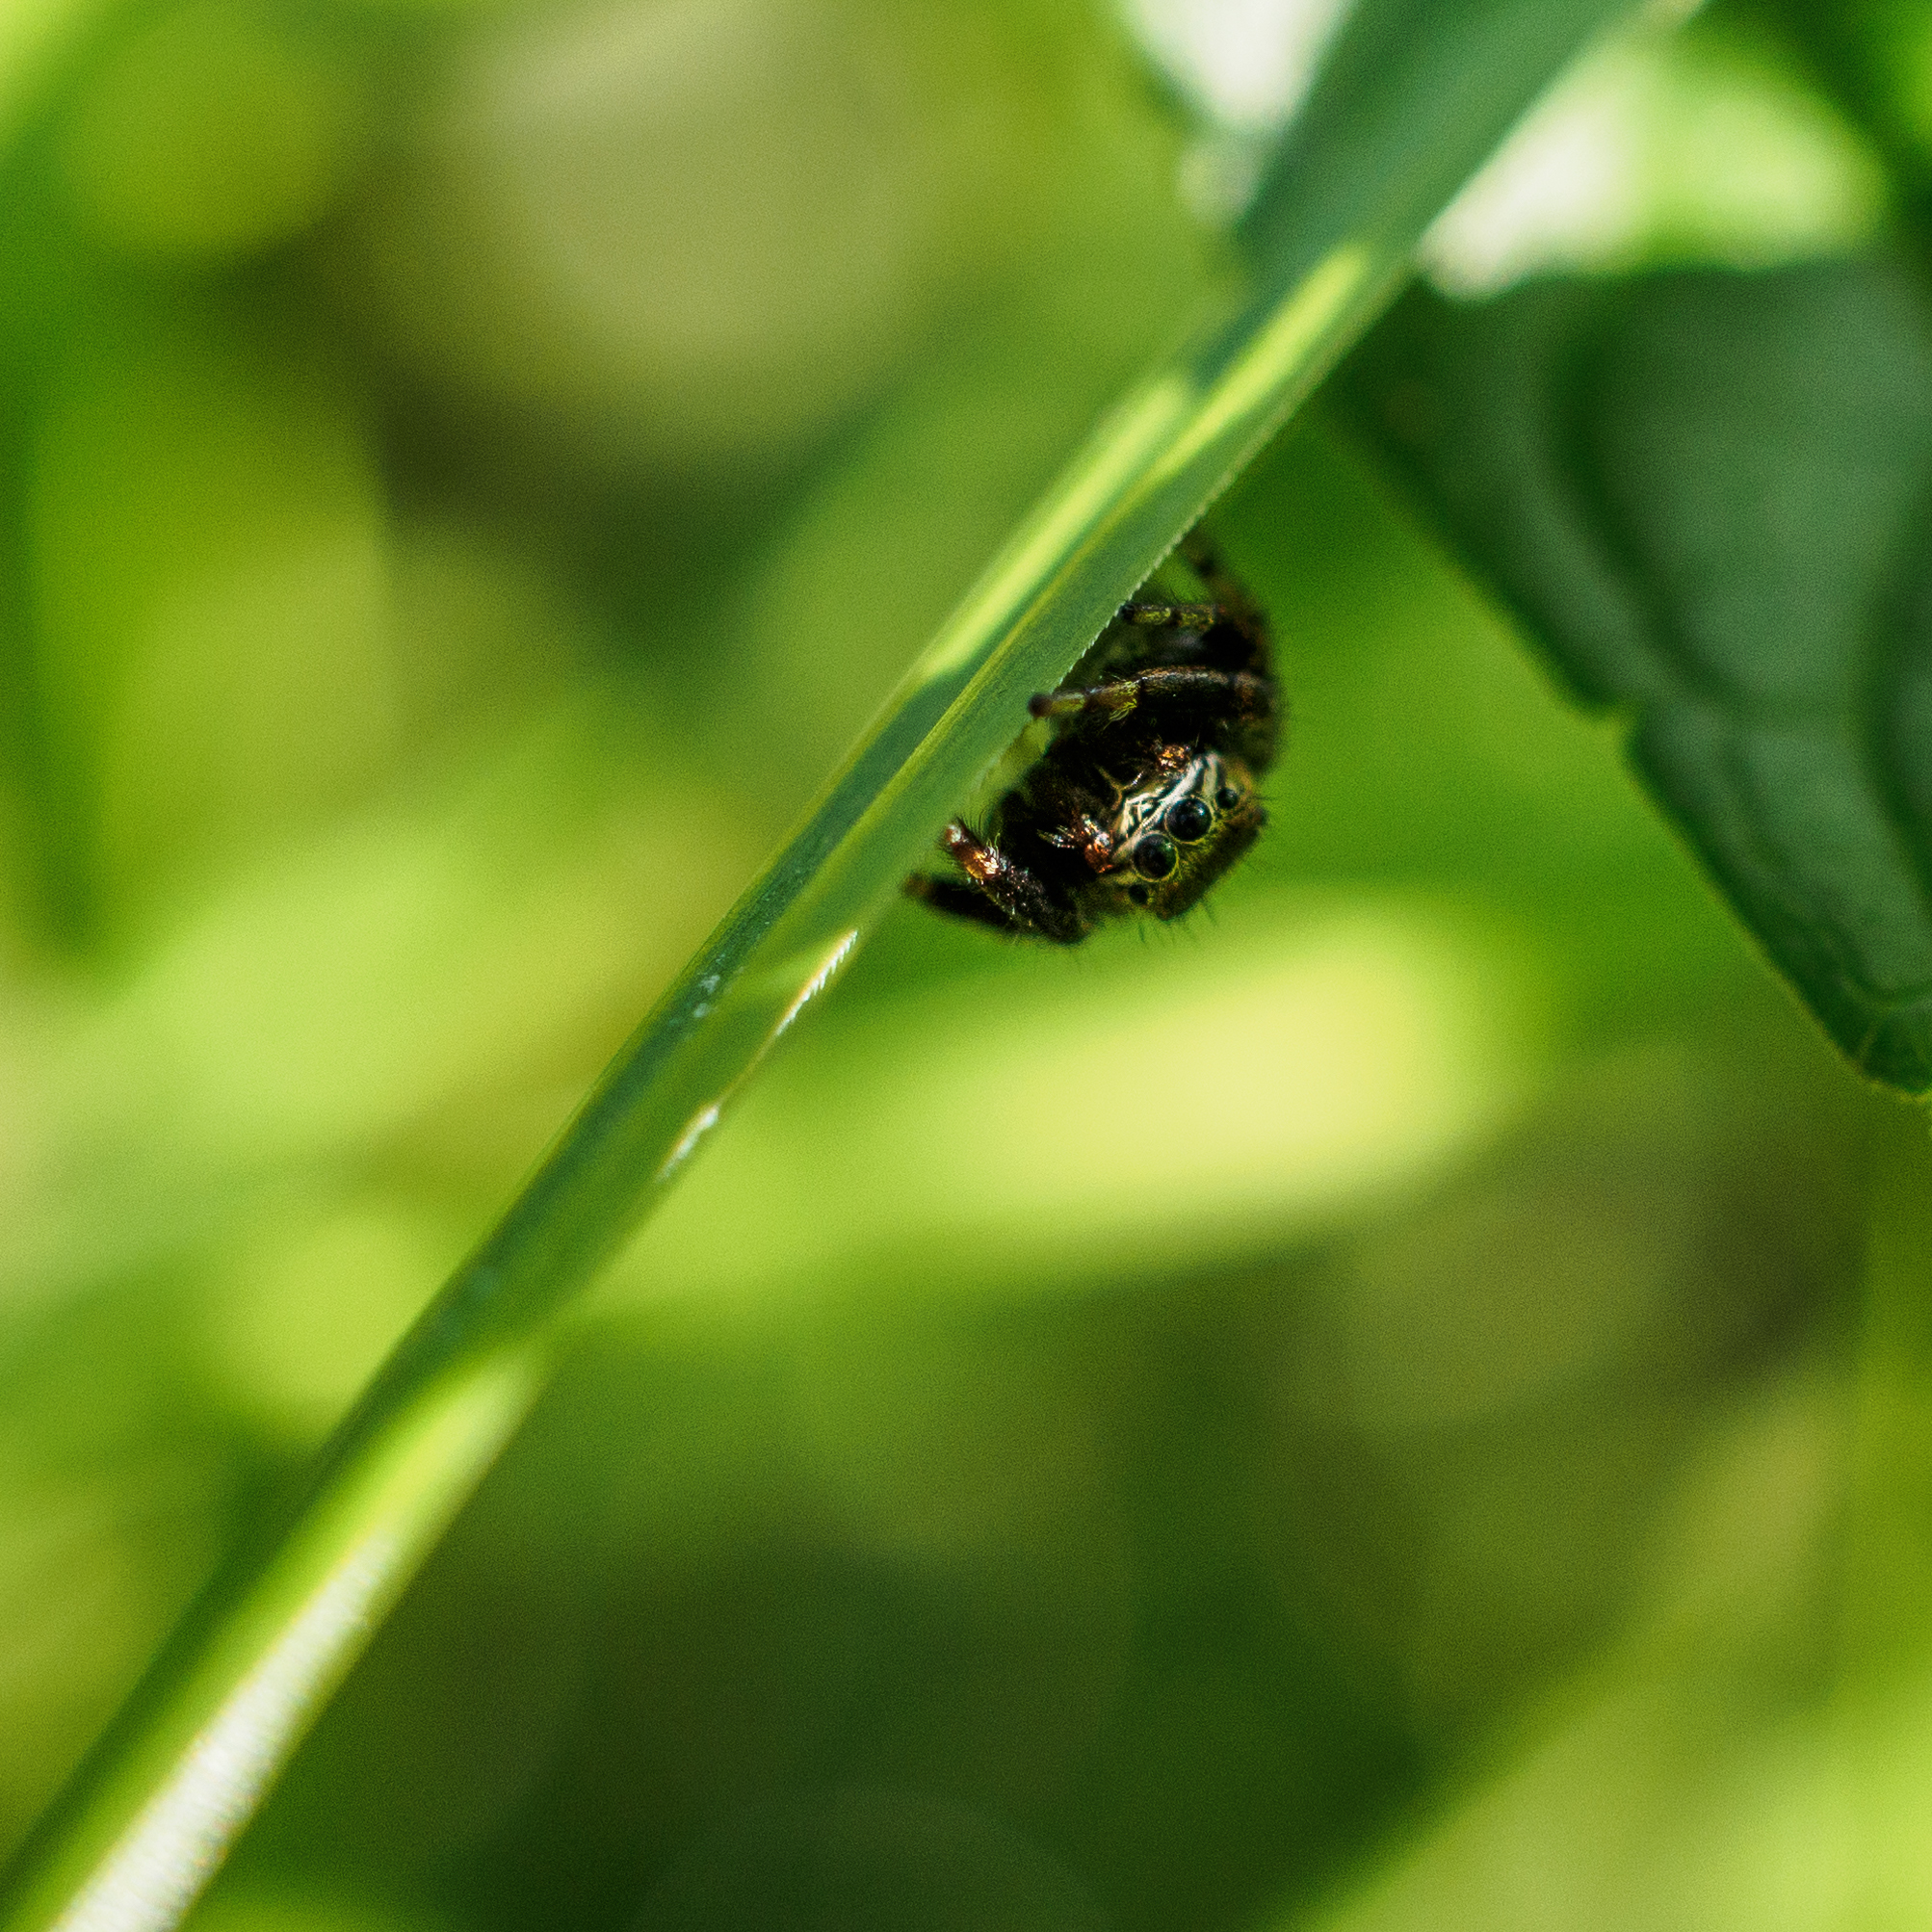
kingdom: Animalia
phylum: Arthropoda
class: Arachnida
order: Araneae
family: Salticidae
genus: Evarcha
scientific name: Evarcha arcuata
